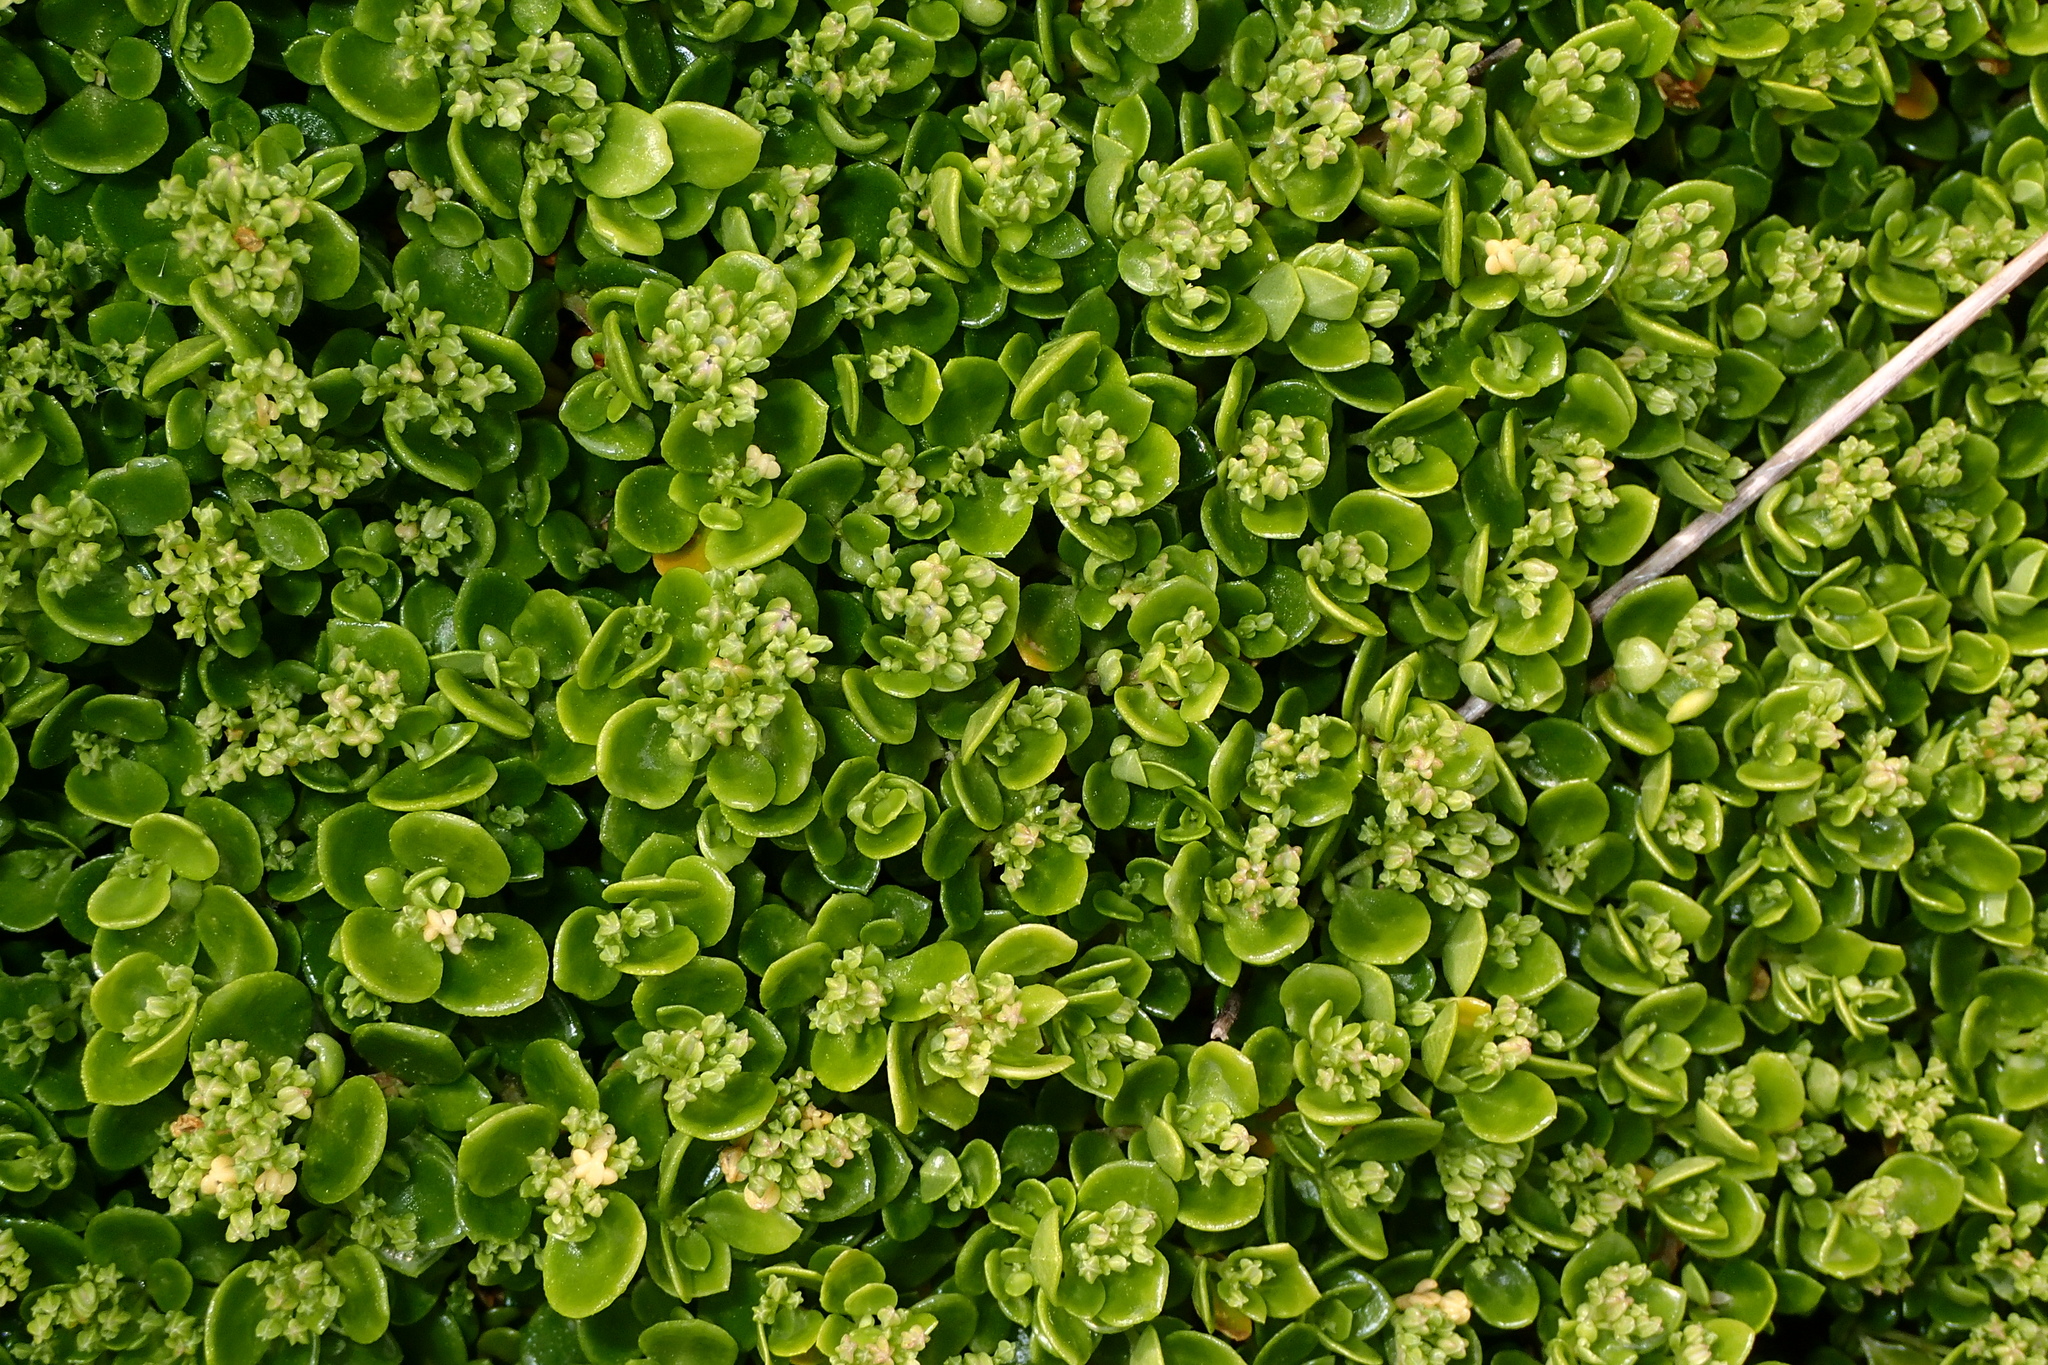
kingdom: Plantae
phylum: Tracheophyta
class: Magnoliopsida
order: Caryophyllales
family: Caryophyllaceae
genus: Polycarpon
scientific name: Polycarpon polycarpoides
